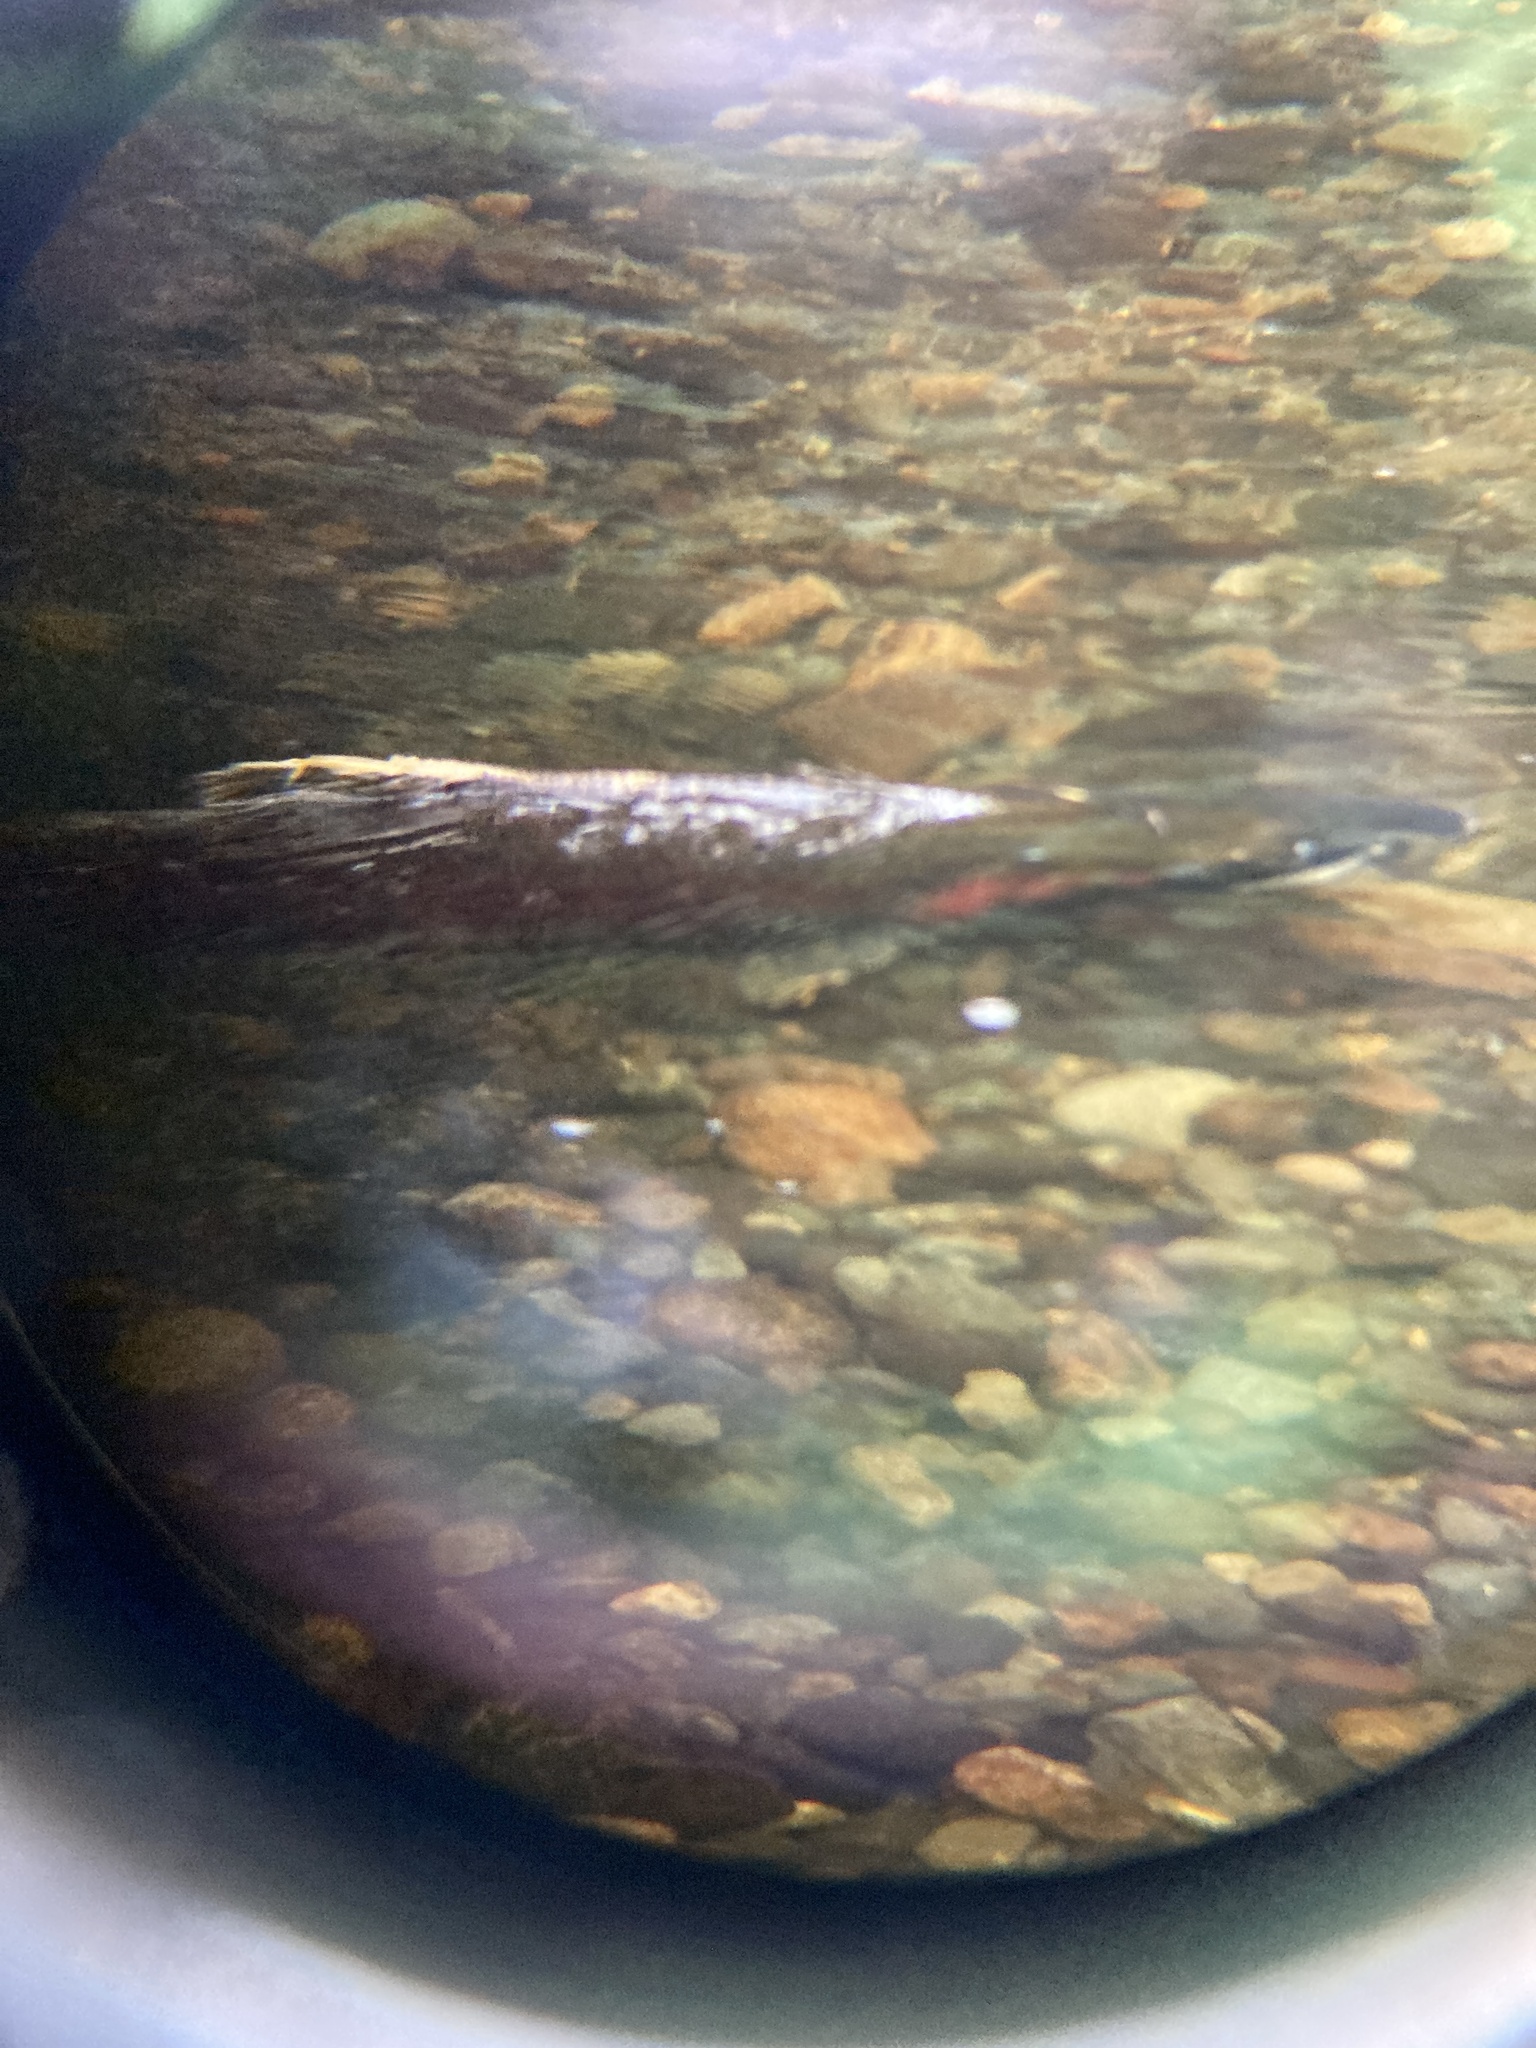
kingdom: Animalia
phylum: Chordata
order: Salmoniformes
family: Salmonidae
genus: Oncorhynchus
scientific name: Oncorhynchus kisutch
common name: Coho salmon
